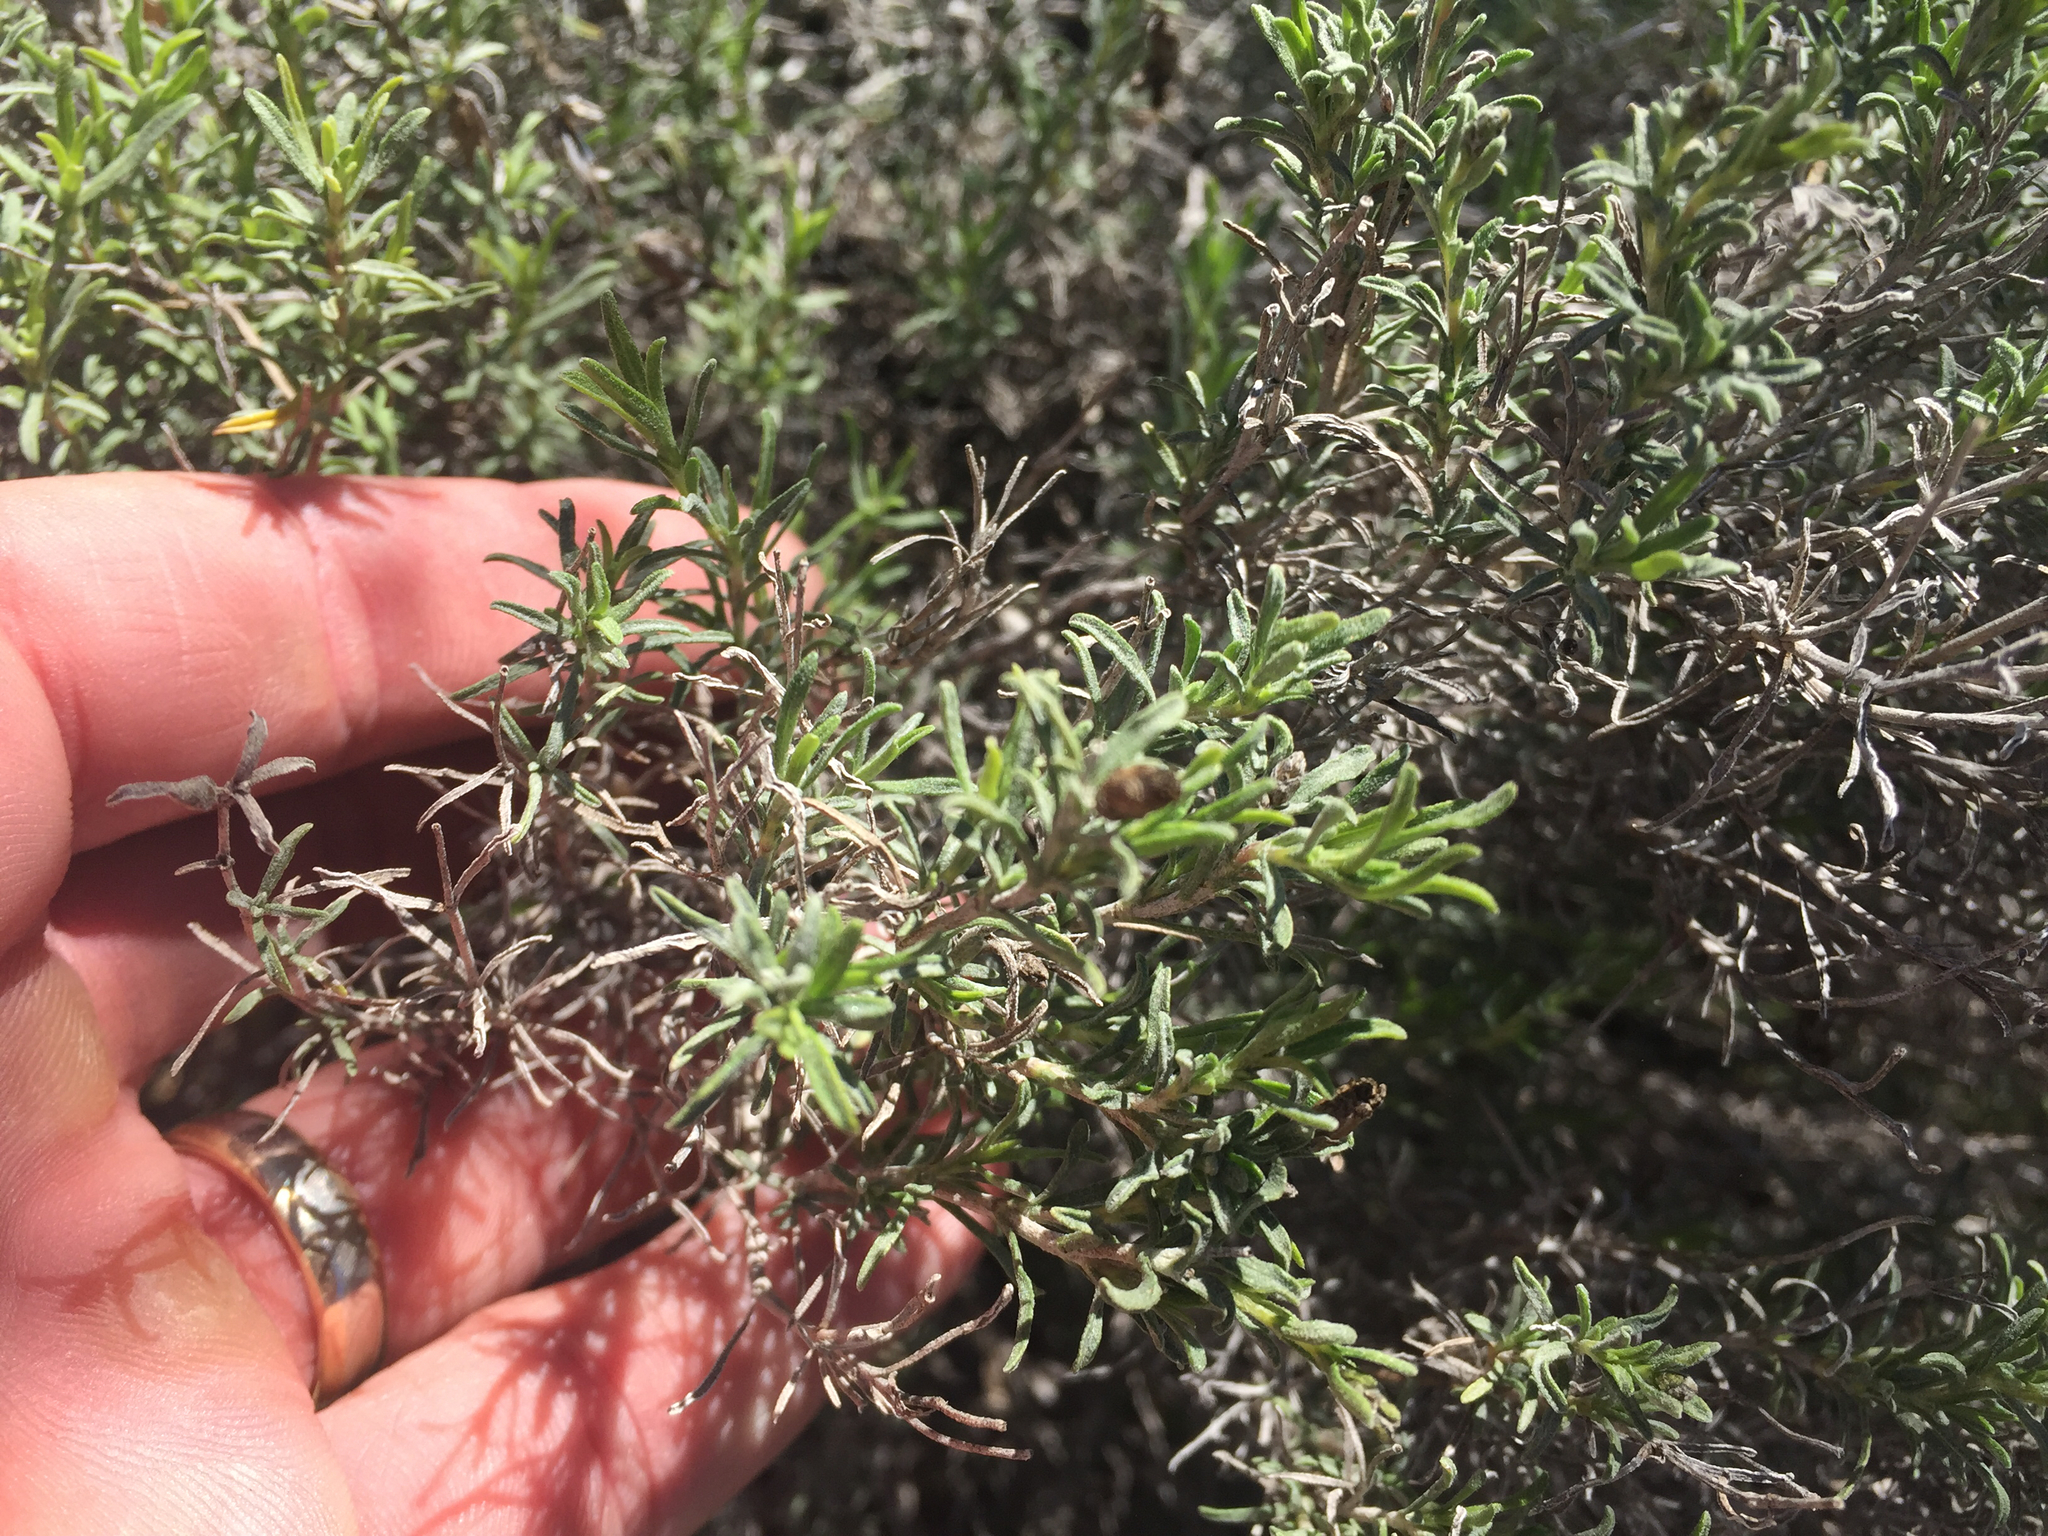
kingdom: Plantae
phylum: Tracheophyta
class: Magnoliopsida
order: Asterales
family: Asteraceae
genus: Ericameria
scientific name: Ericameria laricifolia
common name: Turpentine-bush
